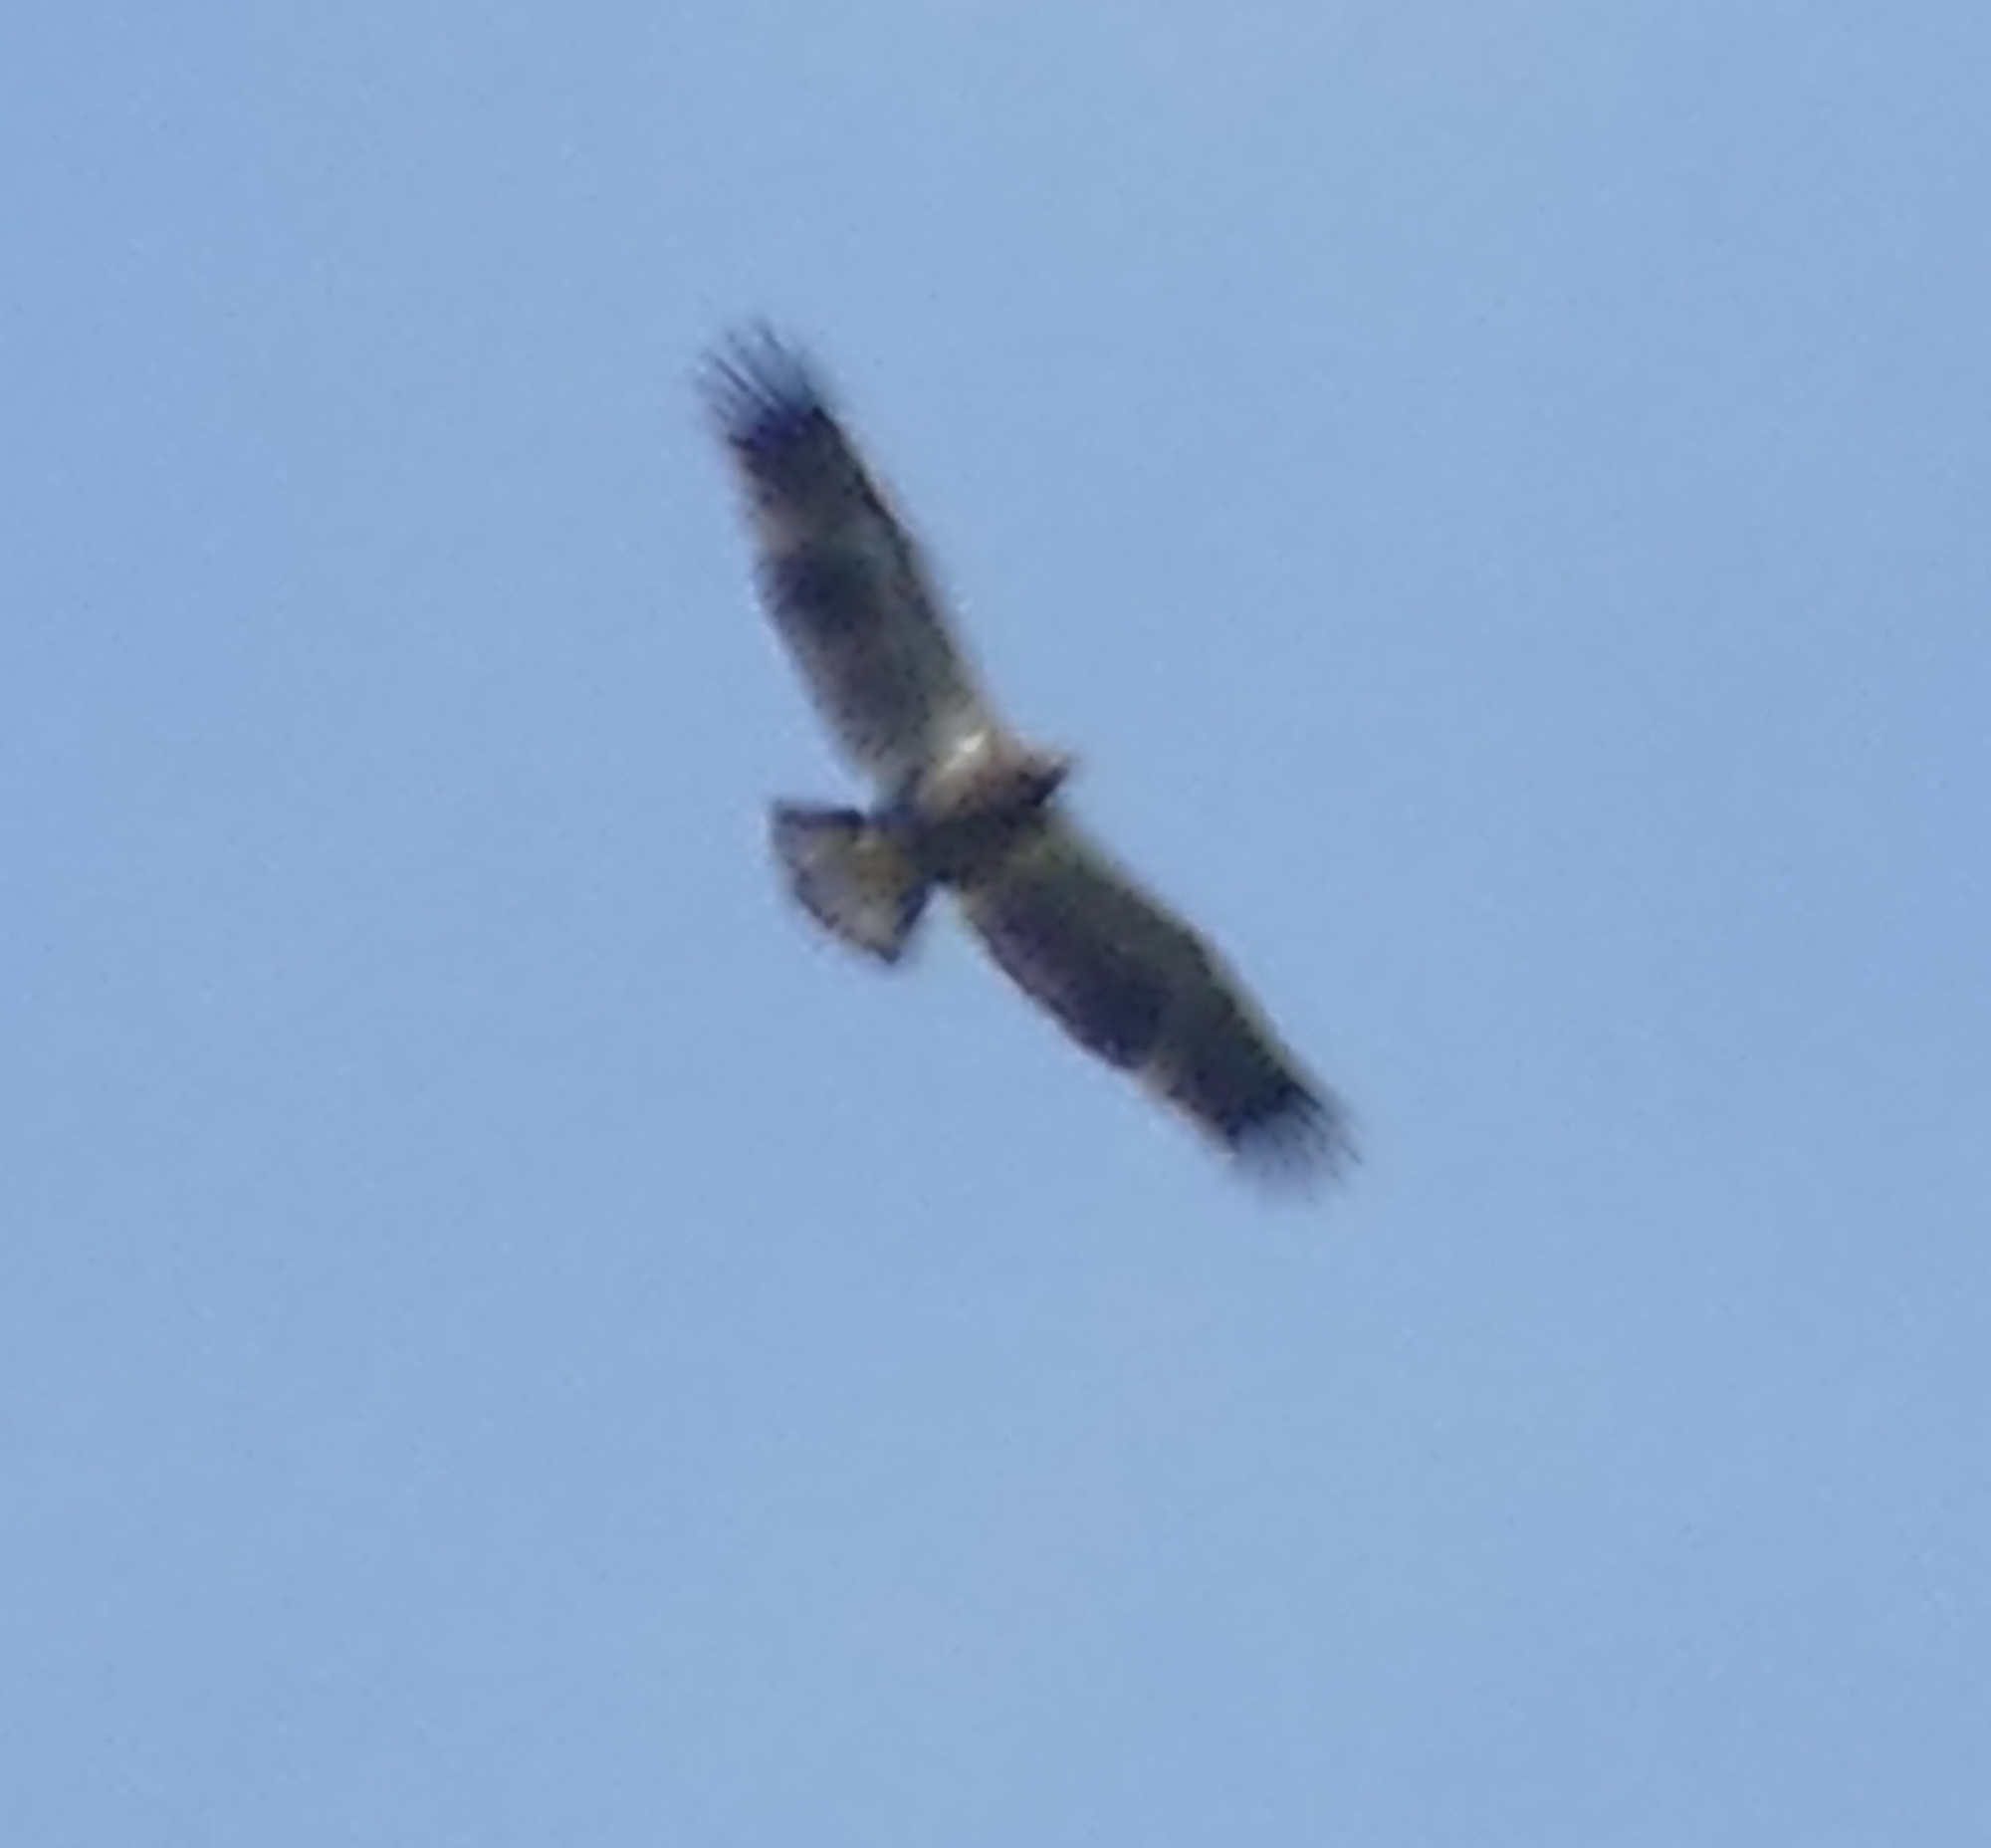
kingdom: Animalia
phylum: Chordata
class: Aves
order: Accipitriformes
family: Accipitridae
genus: Haliaeetus
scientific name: Haliaeetus leucocephalus
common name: Bald eagle
